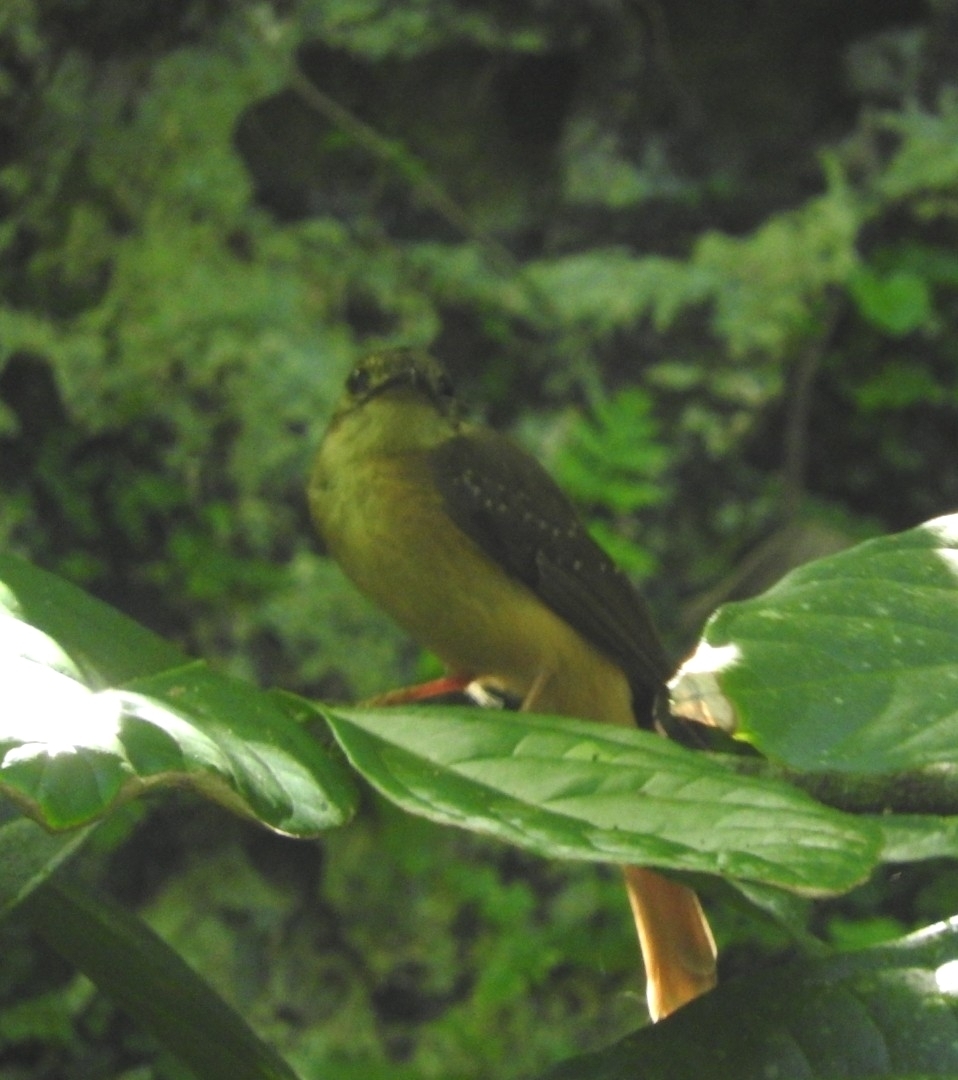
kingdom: Animalia
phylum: Chordata
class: Aves
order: Passeriformes
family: Tyrannidae
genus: Onychorhynchus
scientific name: Onychorhynchus coronatus
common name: Royal flycatcher
